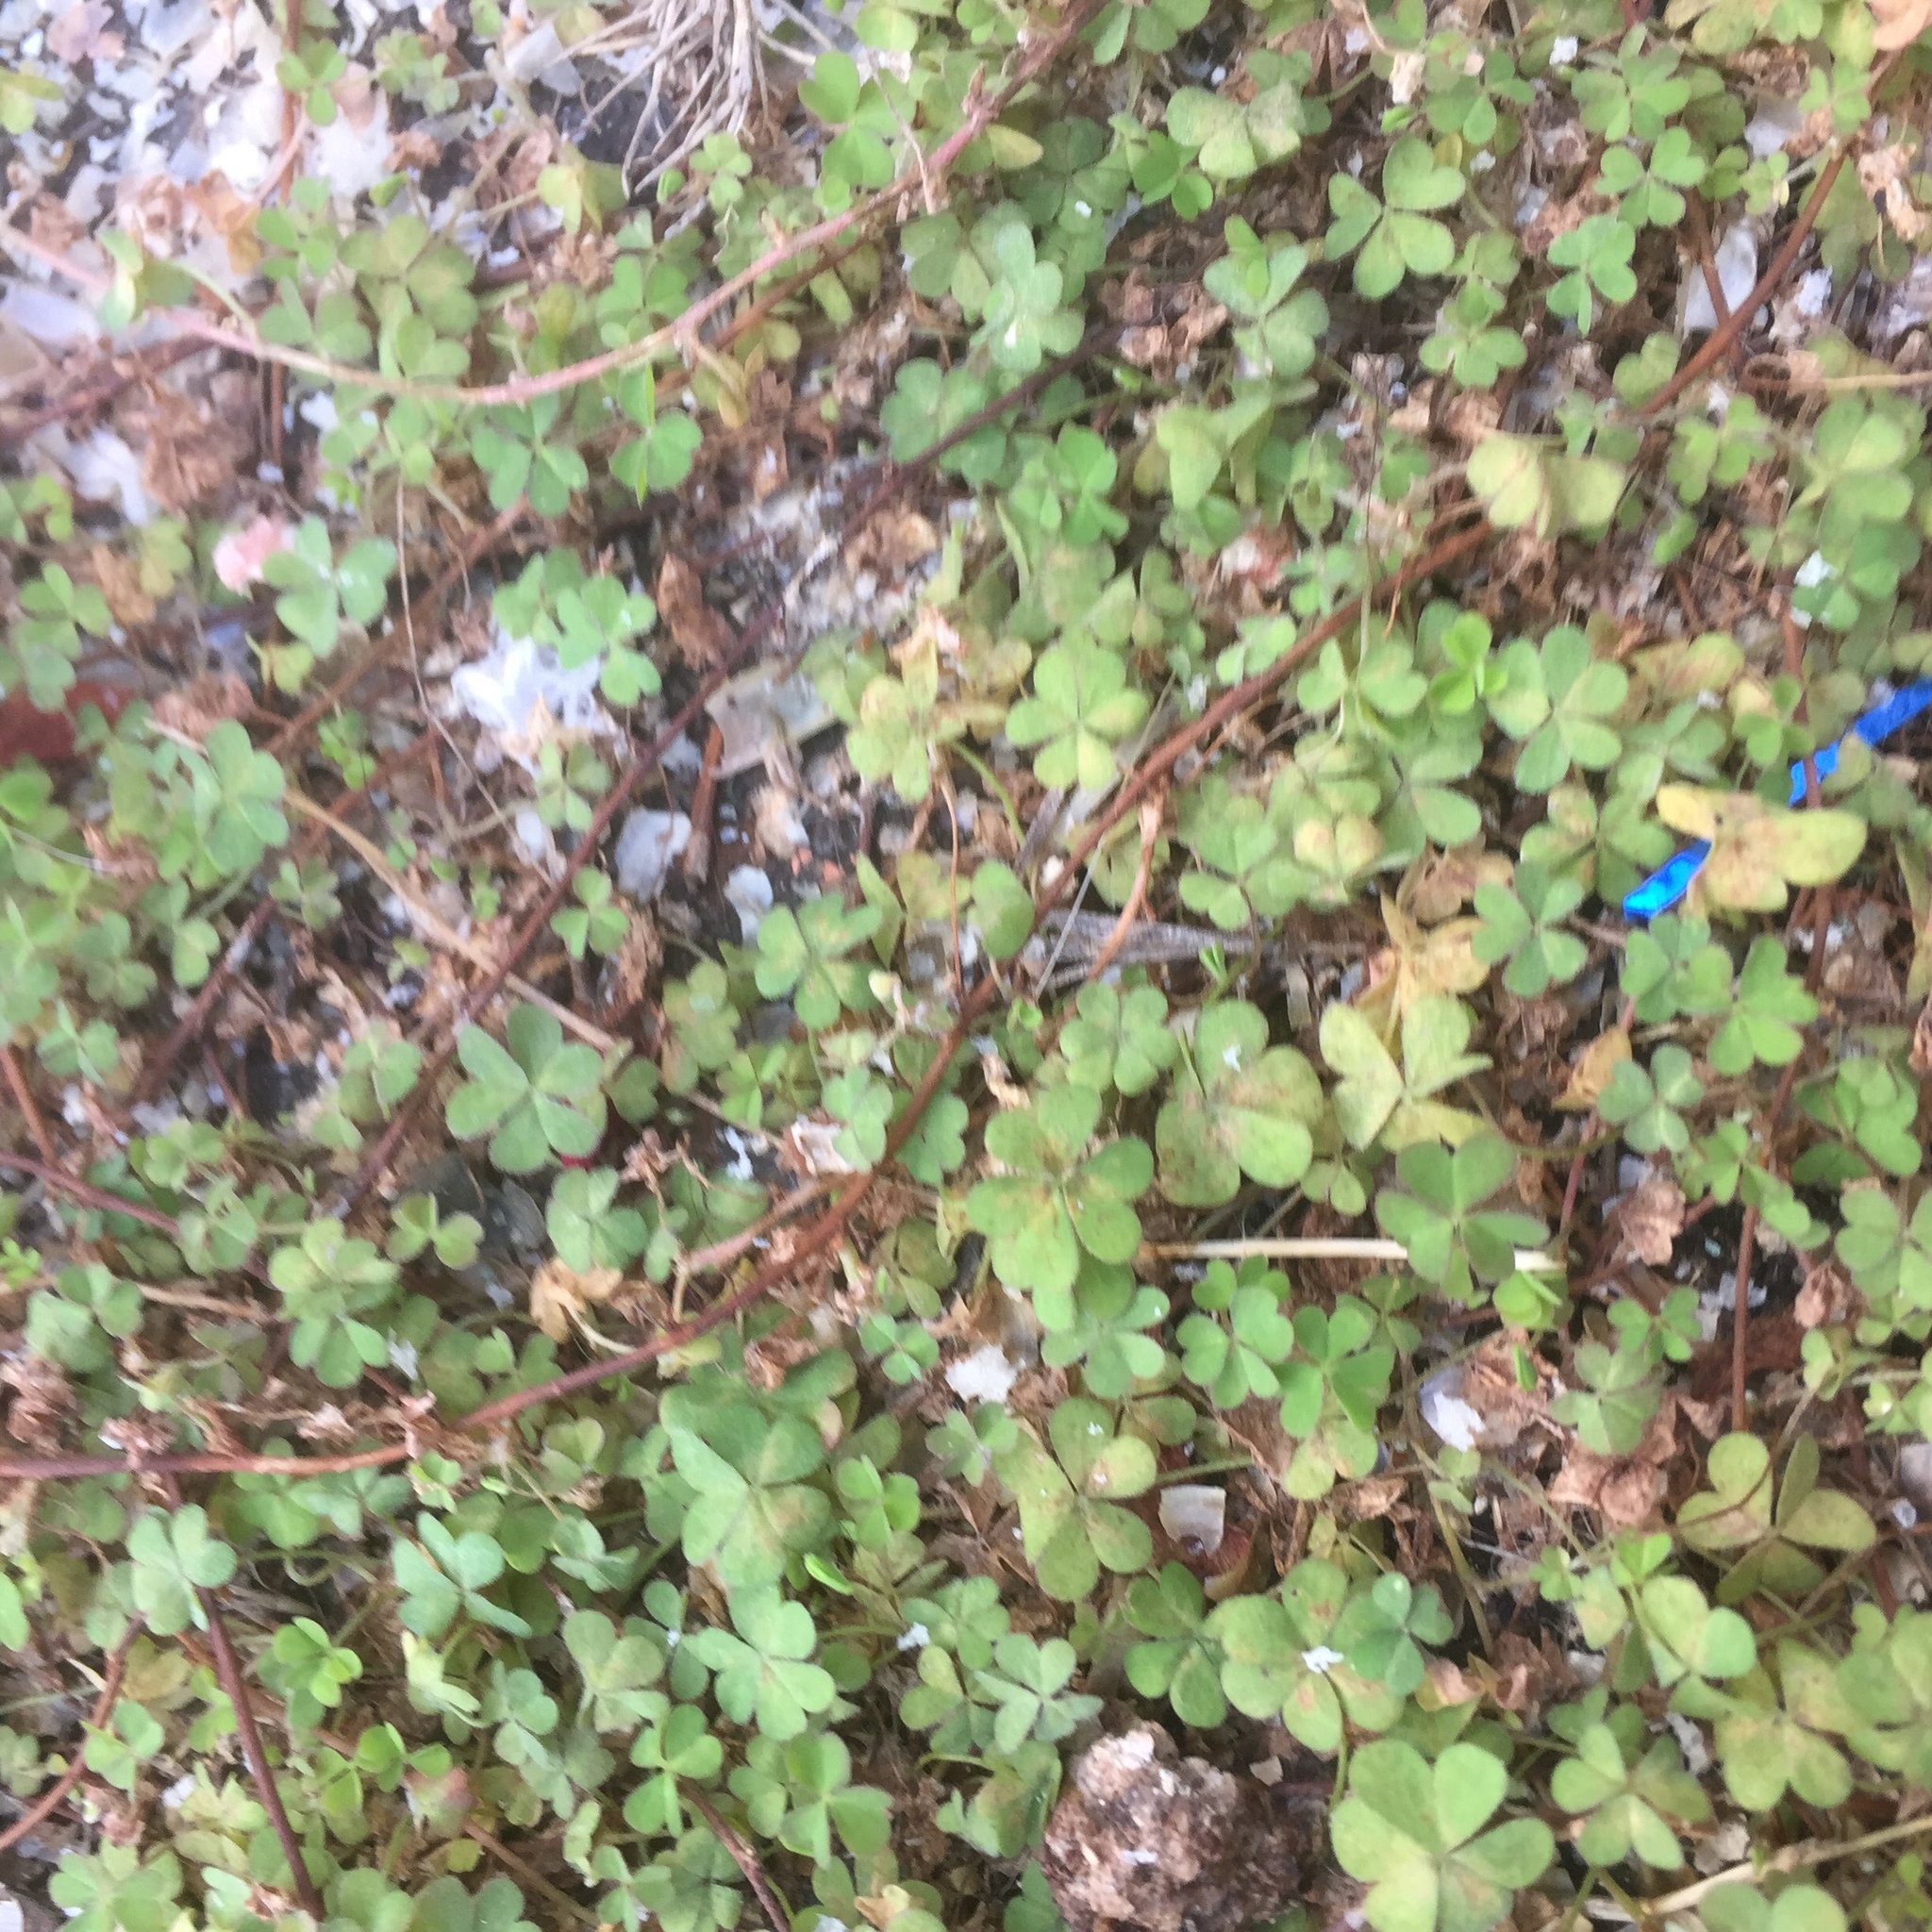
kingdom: Plantae
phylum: Tracheophyta
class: Magnoliopsida
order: Oxalidales
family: Oxalidaceae
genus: Oxalis
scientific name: Oxalis corniculata
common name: Procumbent yellow-sorrel
